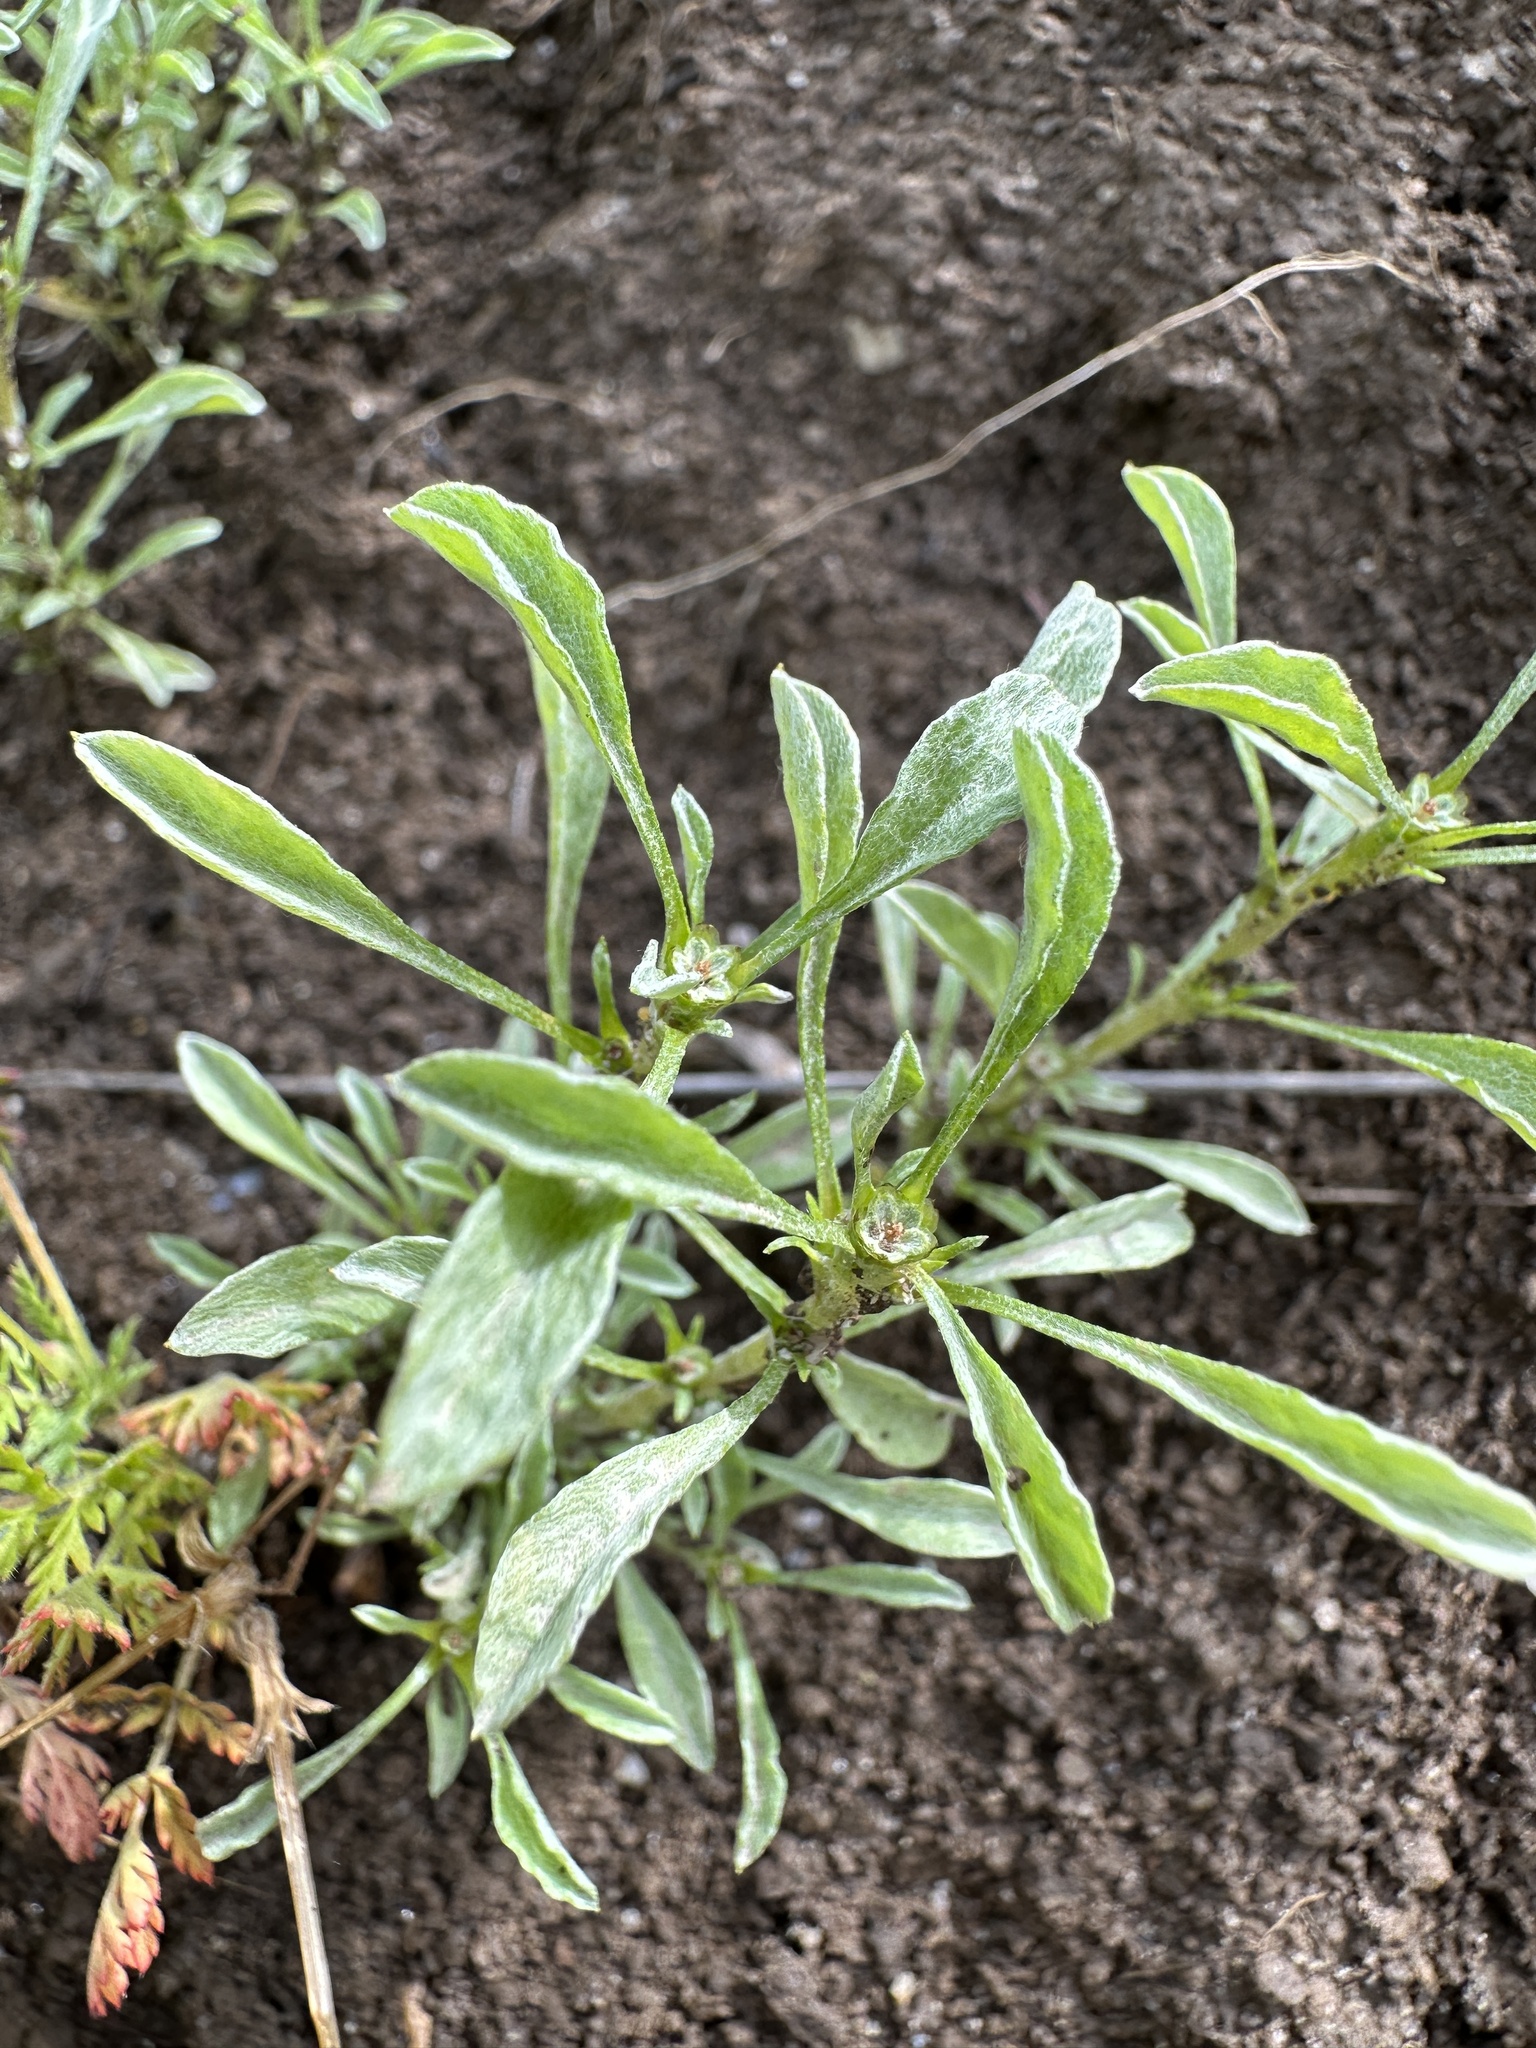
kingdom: Plantae
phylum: Tracheophyta
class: Magnoliopsida
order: Asterales
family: Asteraceae
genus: Hesperevax
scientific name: Hesperevax sparsiflora
